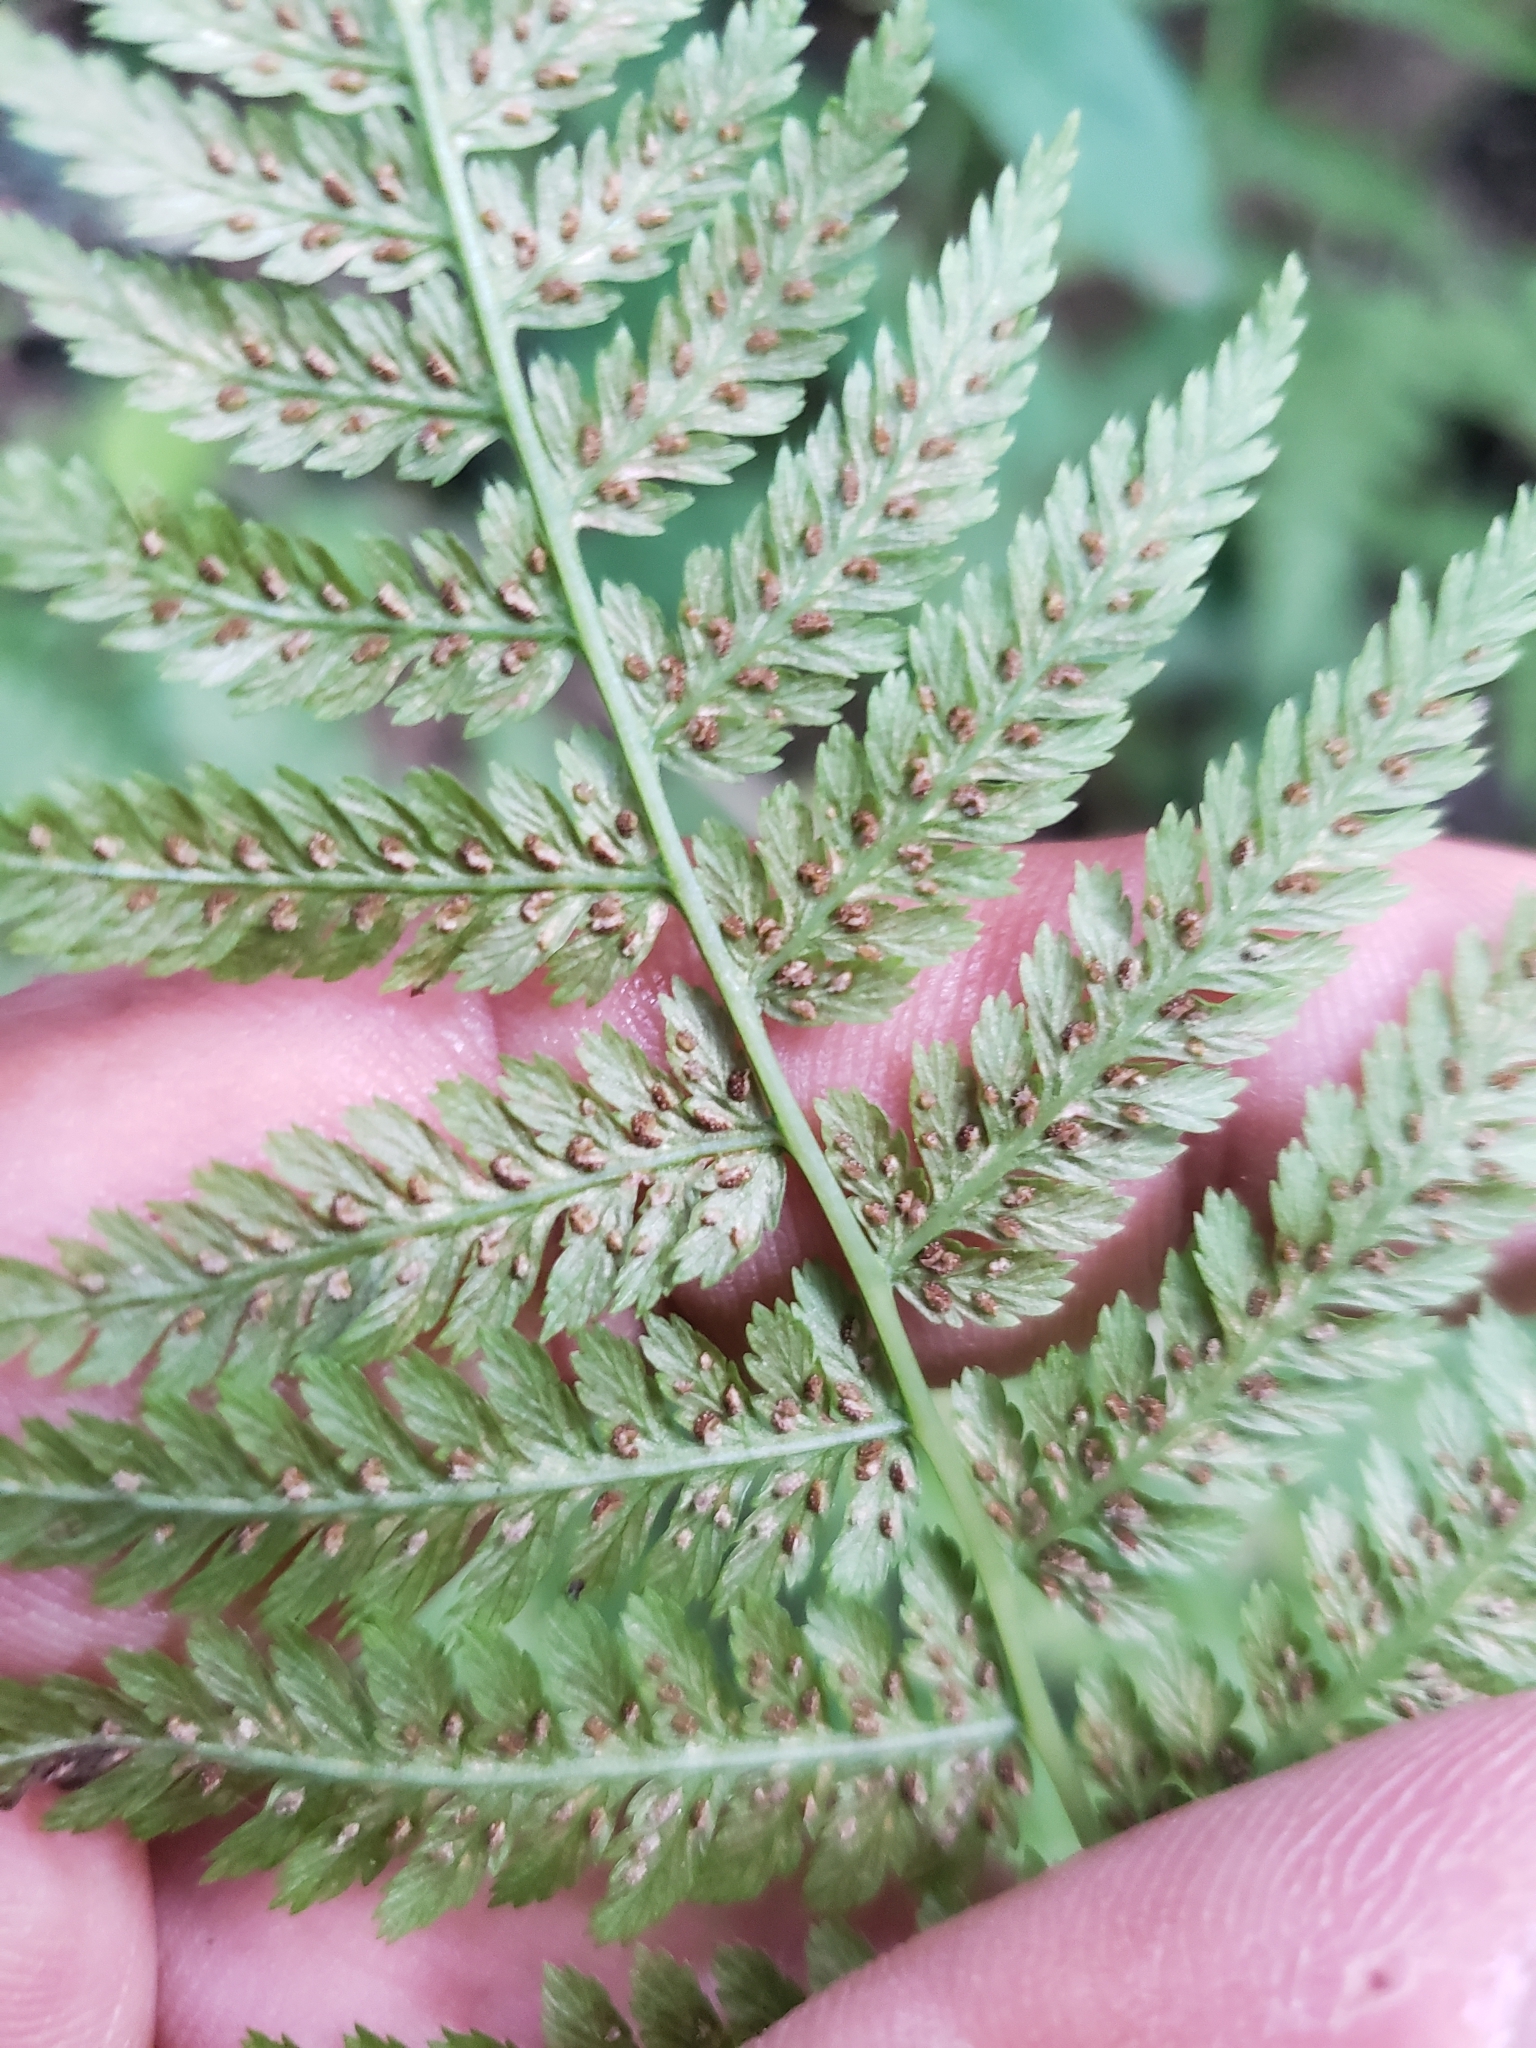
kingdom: Plantae
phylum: Tracheophyta
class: Polypodiopsida
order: Polypodiales
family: Athyriaceae
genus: Athyrium
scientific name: Athyrium filix-femina
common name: Lady fern
